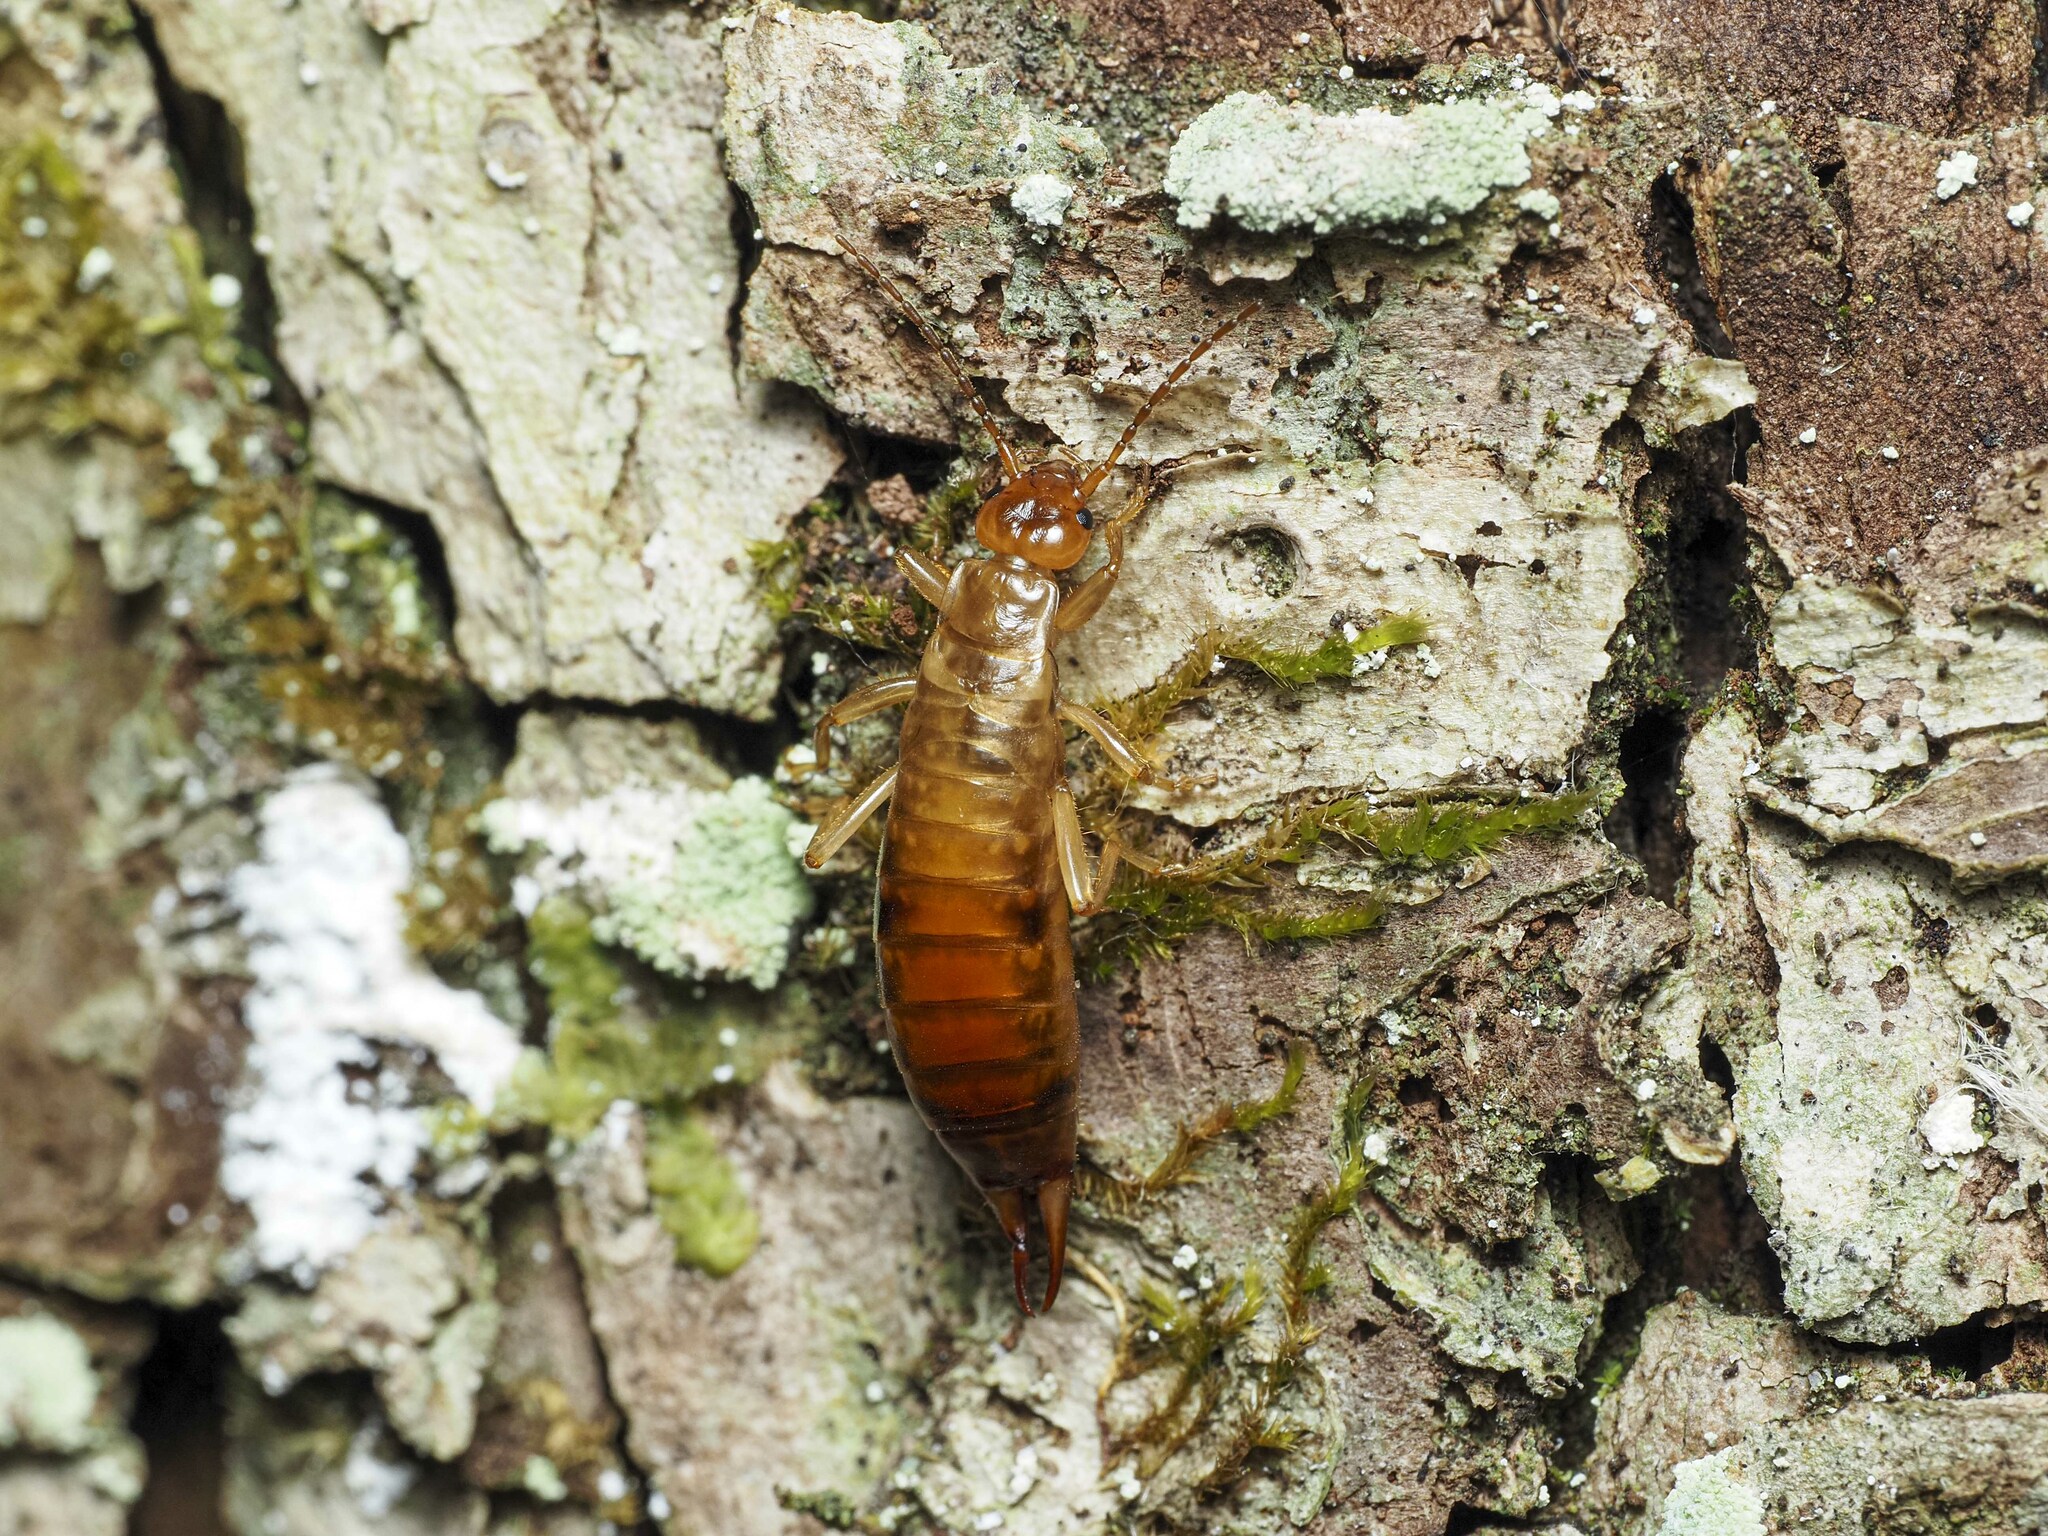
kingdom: Animalia
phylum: Arthropoda
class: Insecta
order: Dermaptera
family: Forficulidae
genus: Chelidurella
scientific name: Chelidurella acanthopygia
